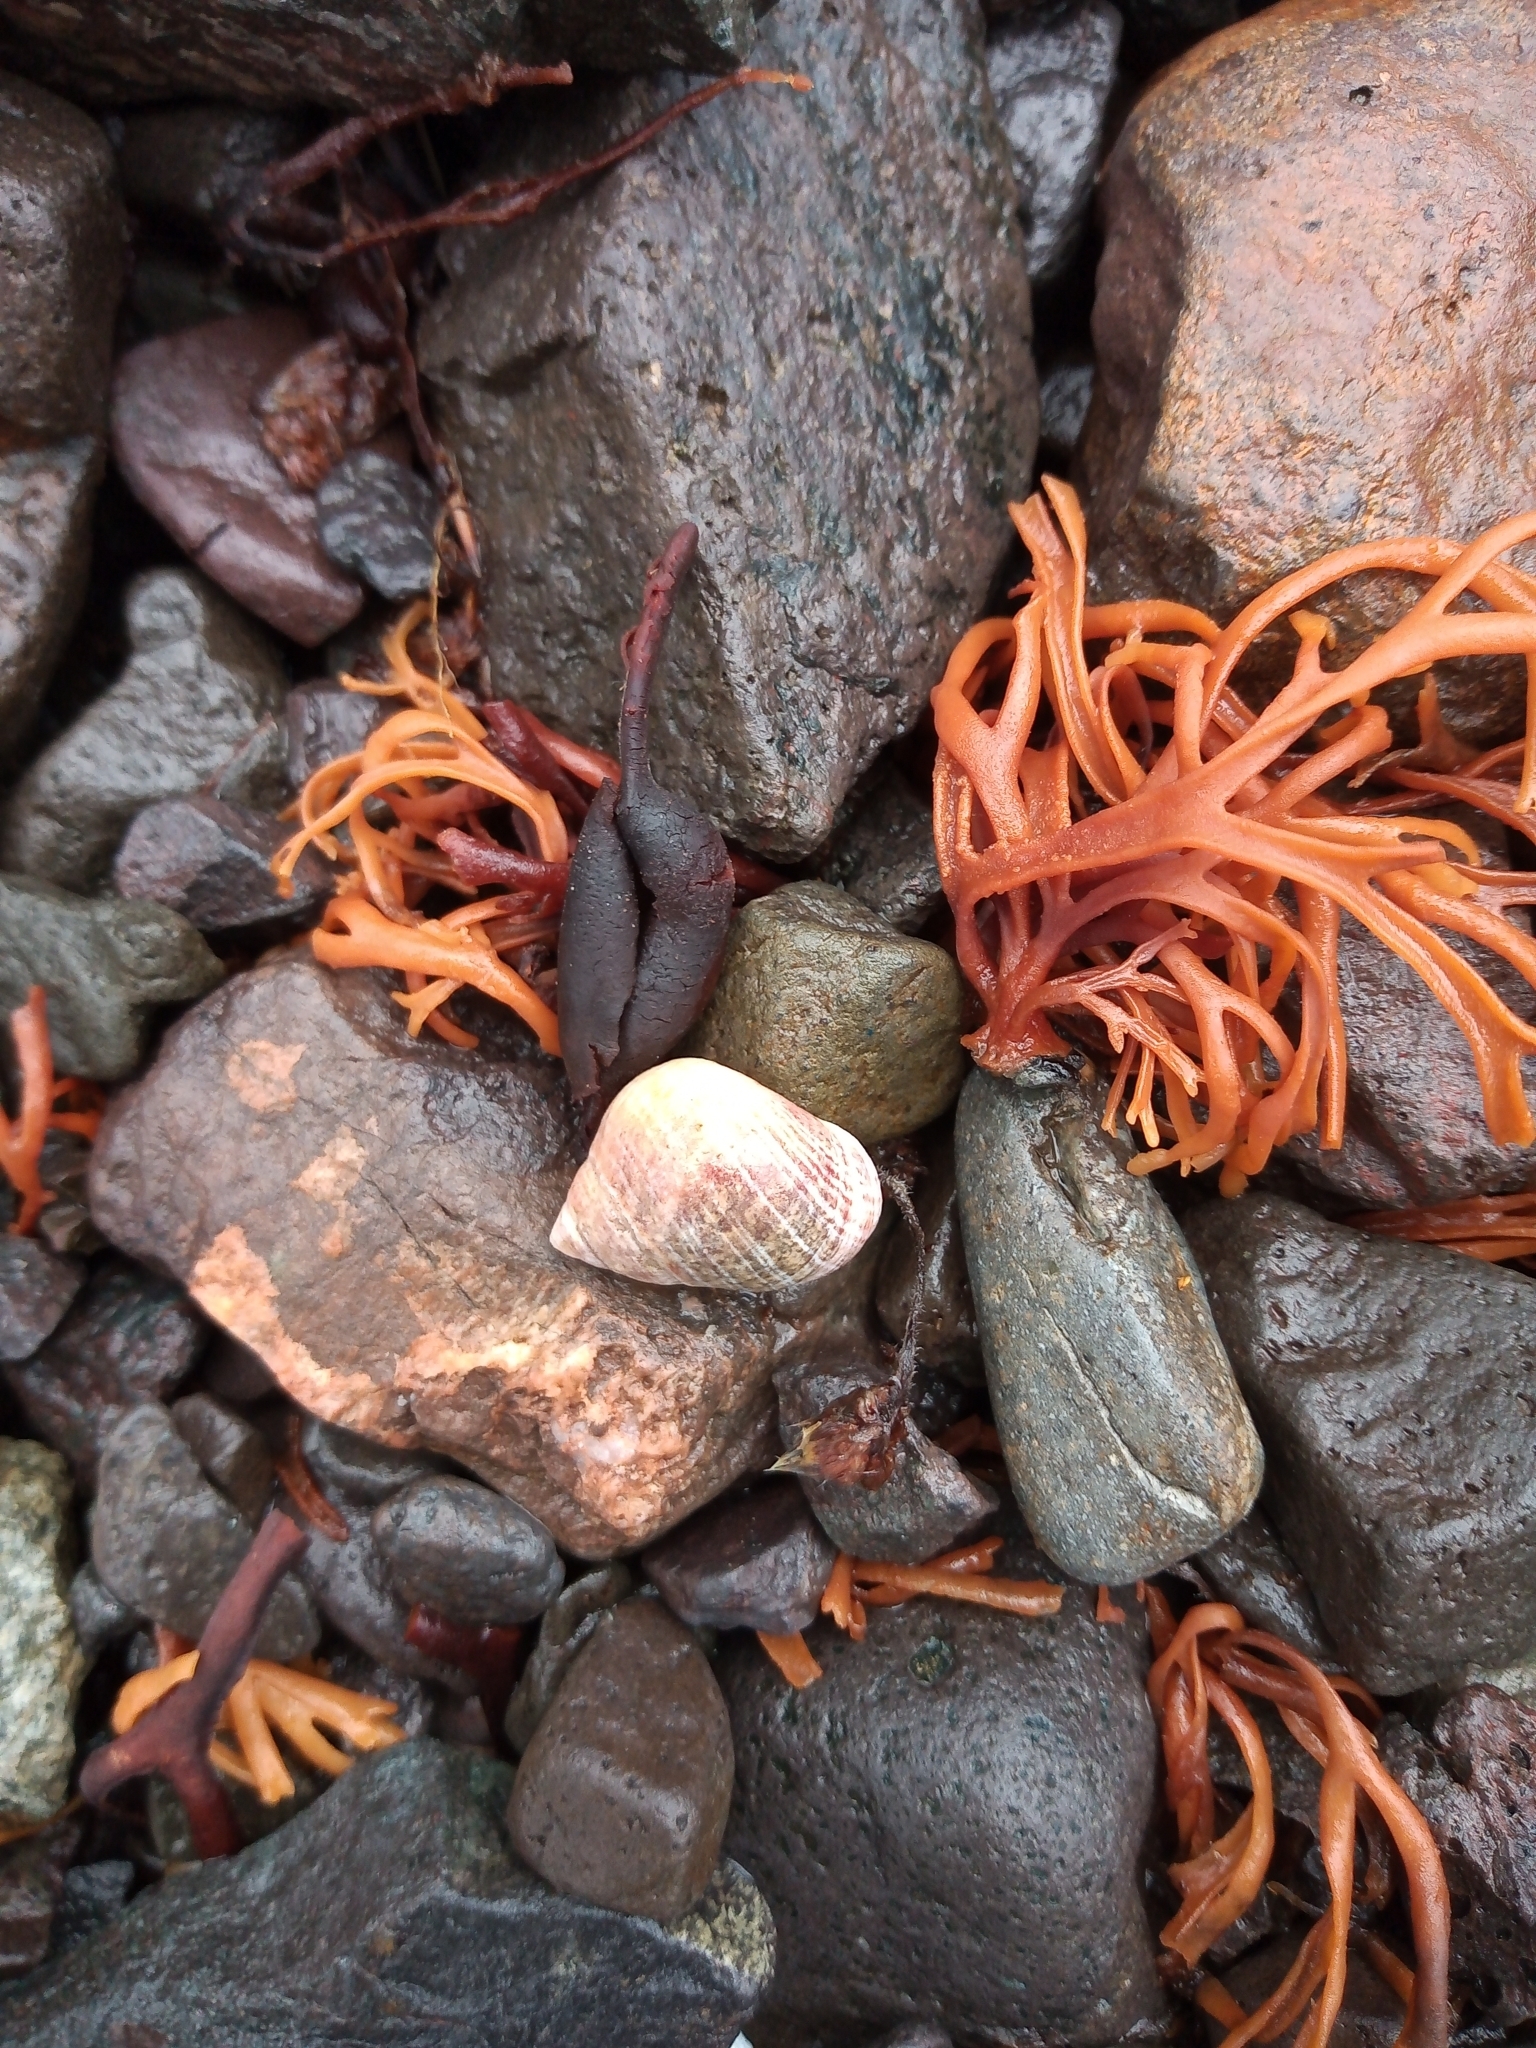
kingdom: Animalia
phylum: Mollusca
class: Gastropoda
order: Littorinimorpha
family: Littorinidae
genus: Littorina
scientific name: Littorina littorea
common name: Common periwinkle
